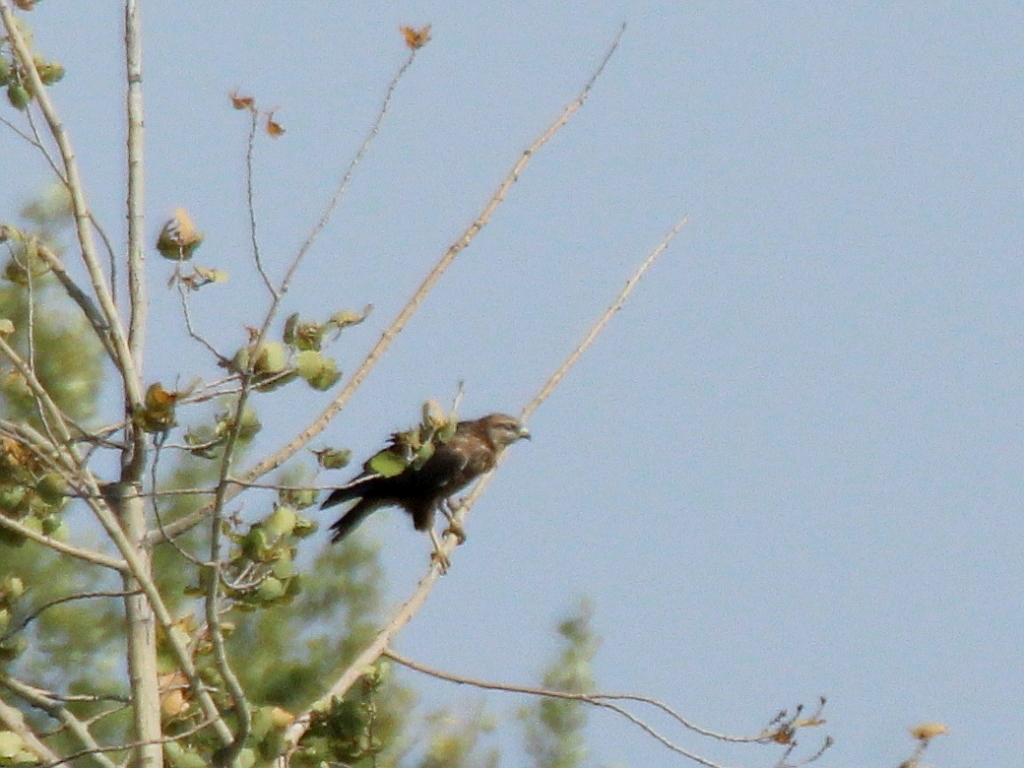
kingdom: Animalia
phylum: Chordata
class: Aves
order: Accipitriformes
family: Accipitridae
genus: Buteo
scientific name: Buteo buteo
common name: Common buzzard
